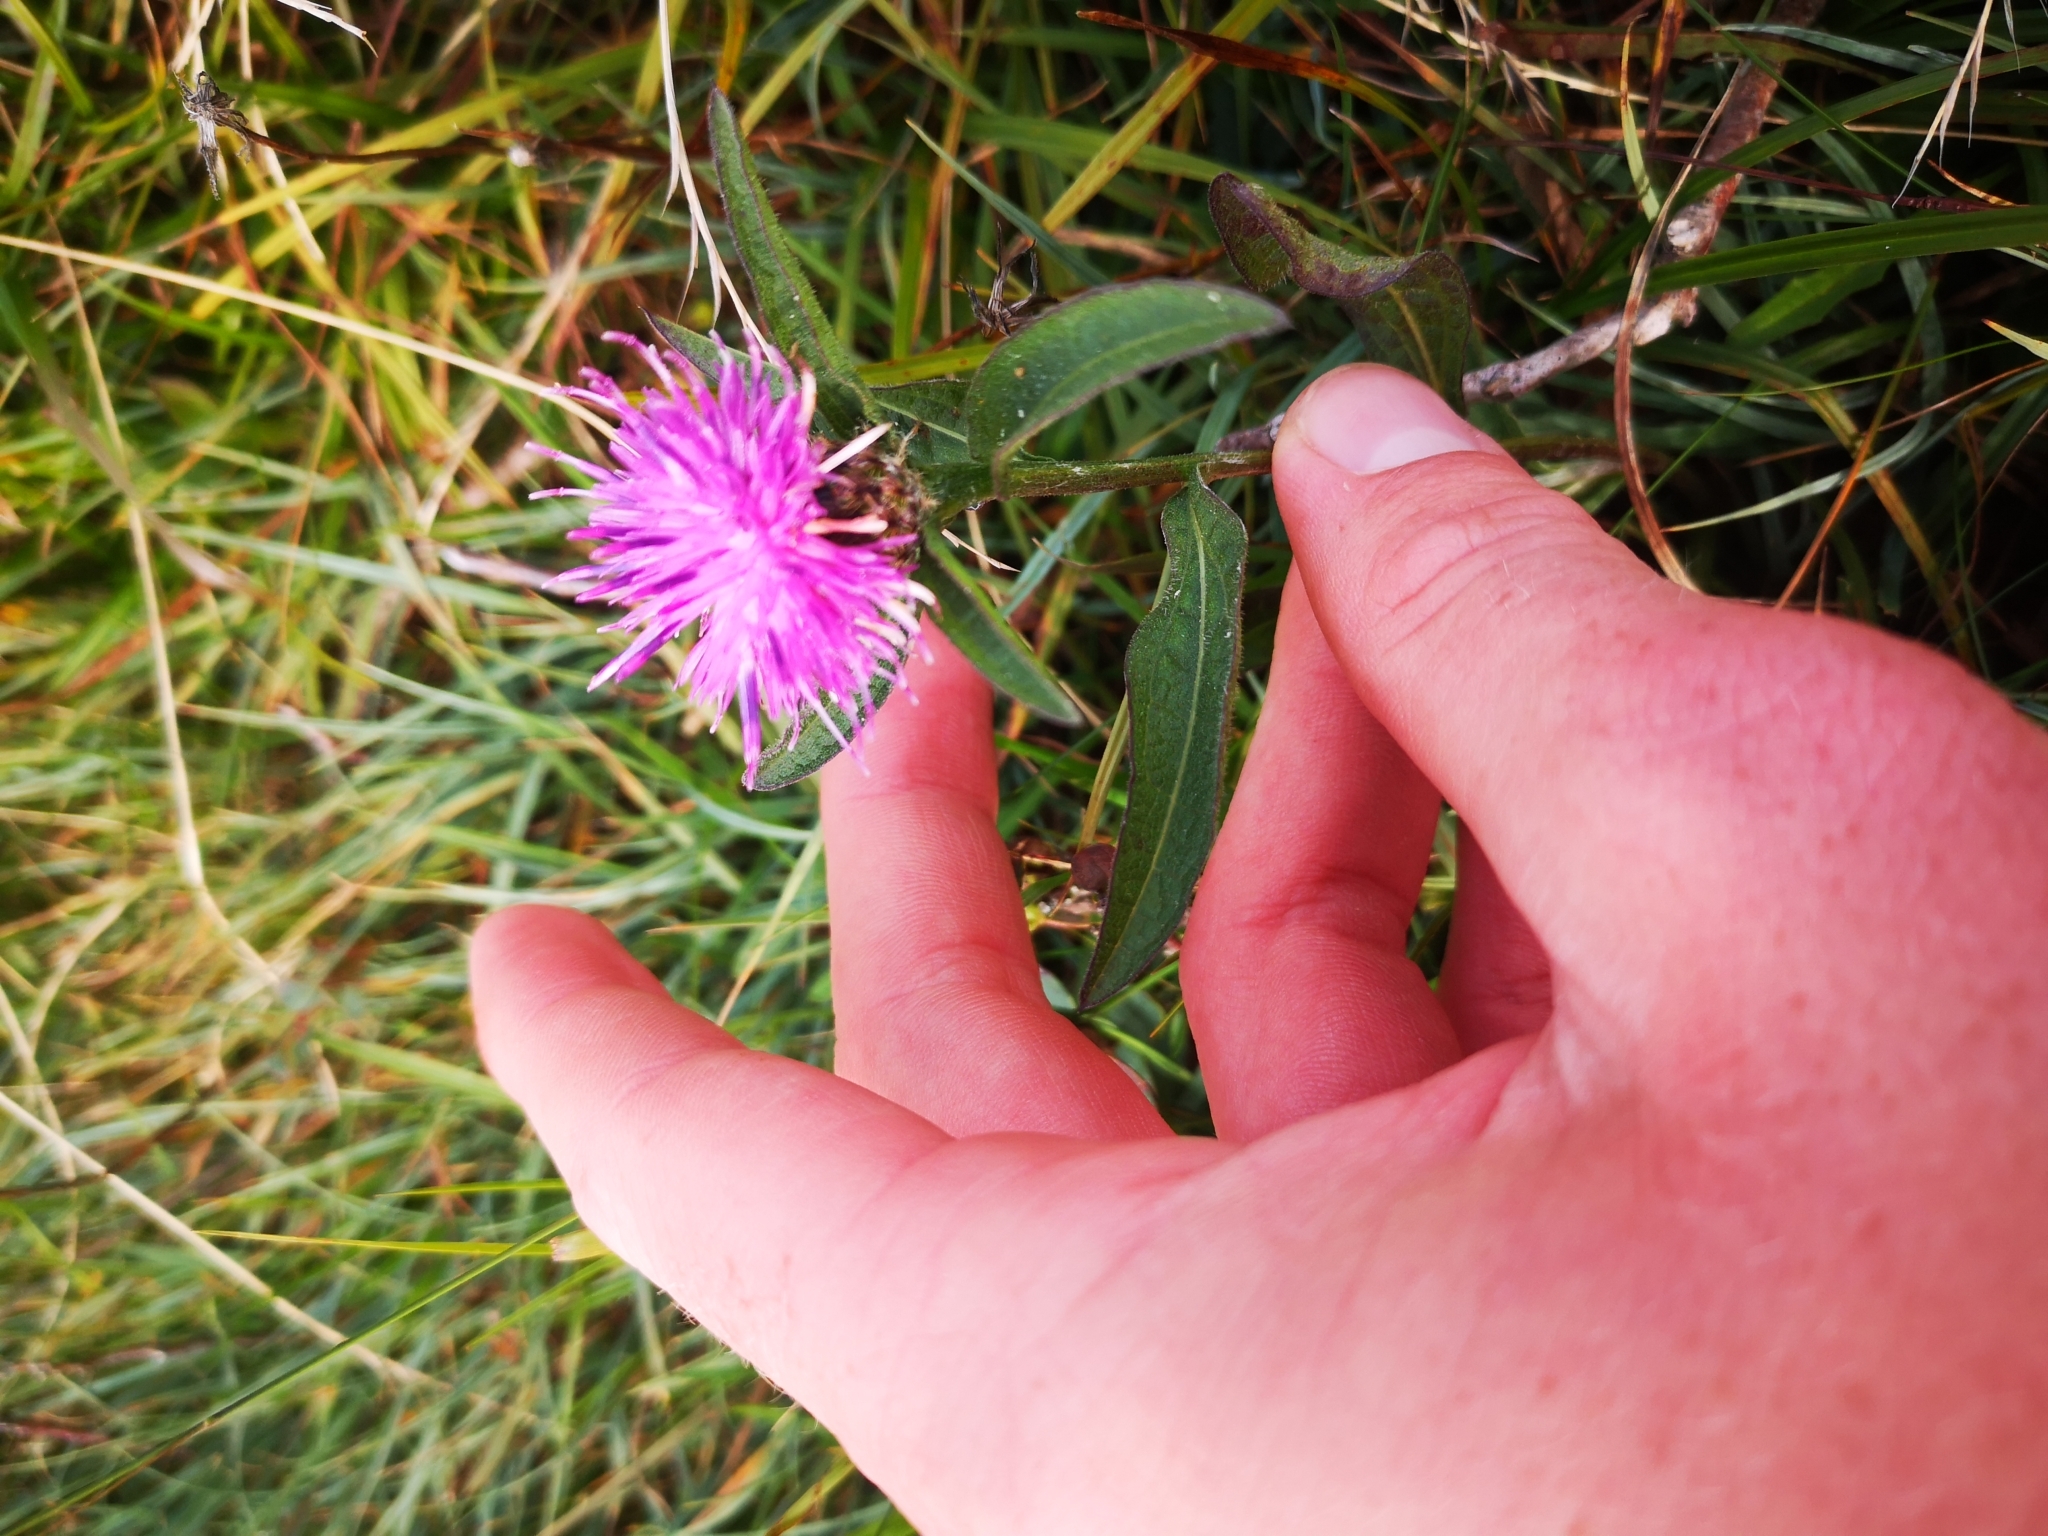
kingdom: Plantae
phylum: Tracheophyta
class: Magnoliopsida
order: Asterales
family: Asteraceae
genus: Centaurea
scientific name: Centaurea nigra
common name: Lesser knapweed
